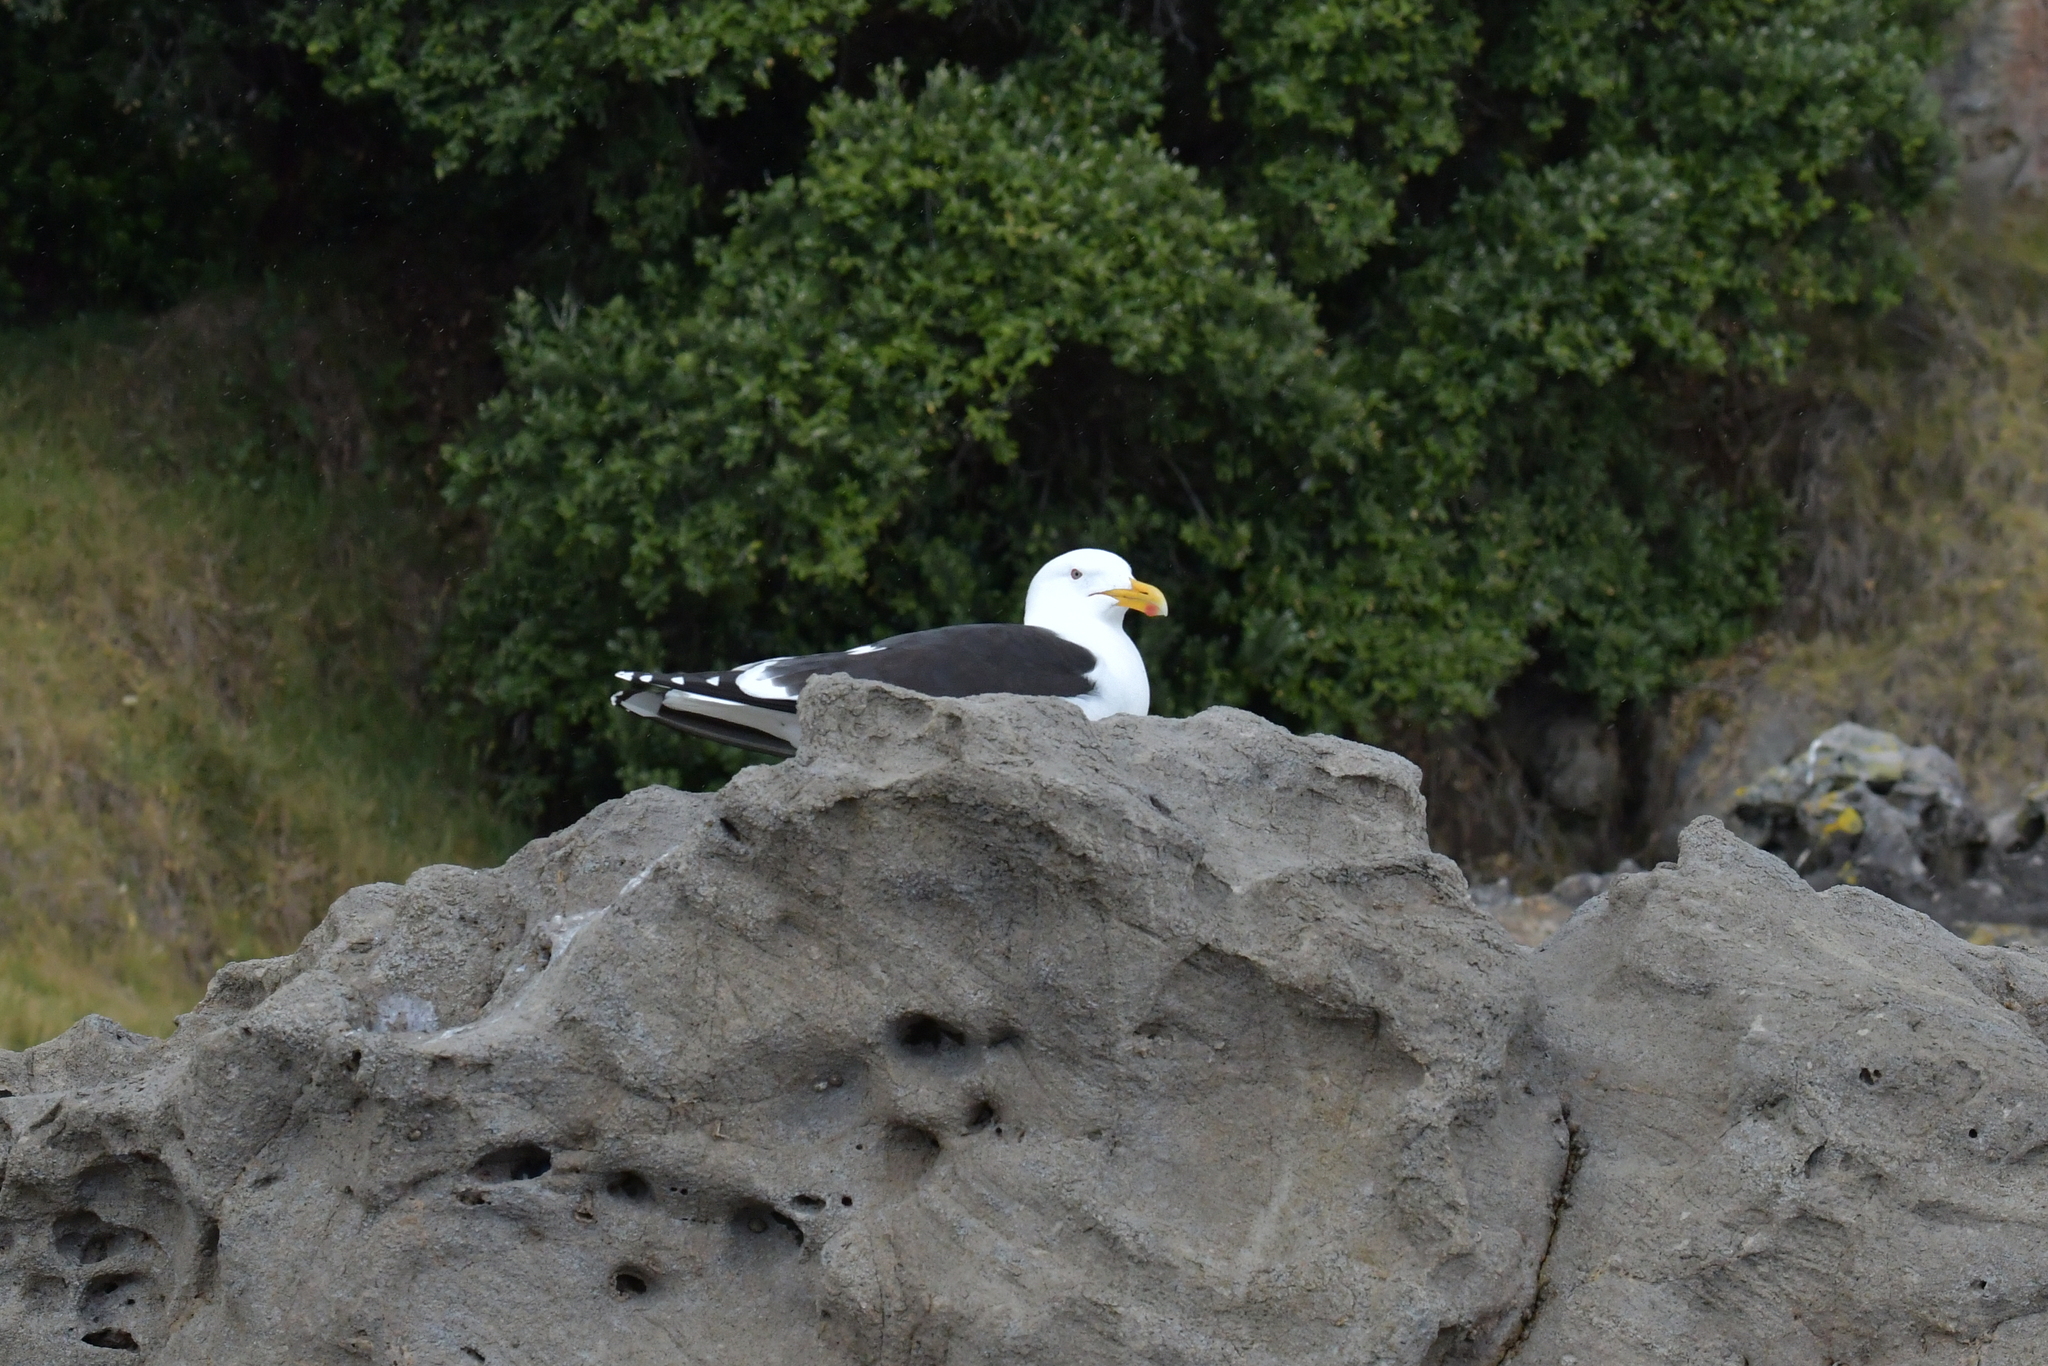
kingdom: Animalia
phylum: Chordata
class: Aves
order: Charadriiformes
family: Laridae
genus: Larus
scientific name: Larus dominicanus
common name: Kelp gull
